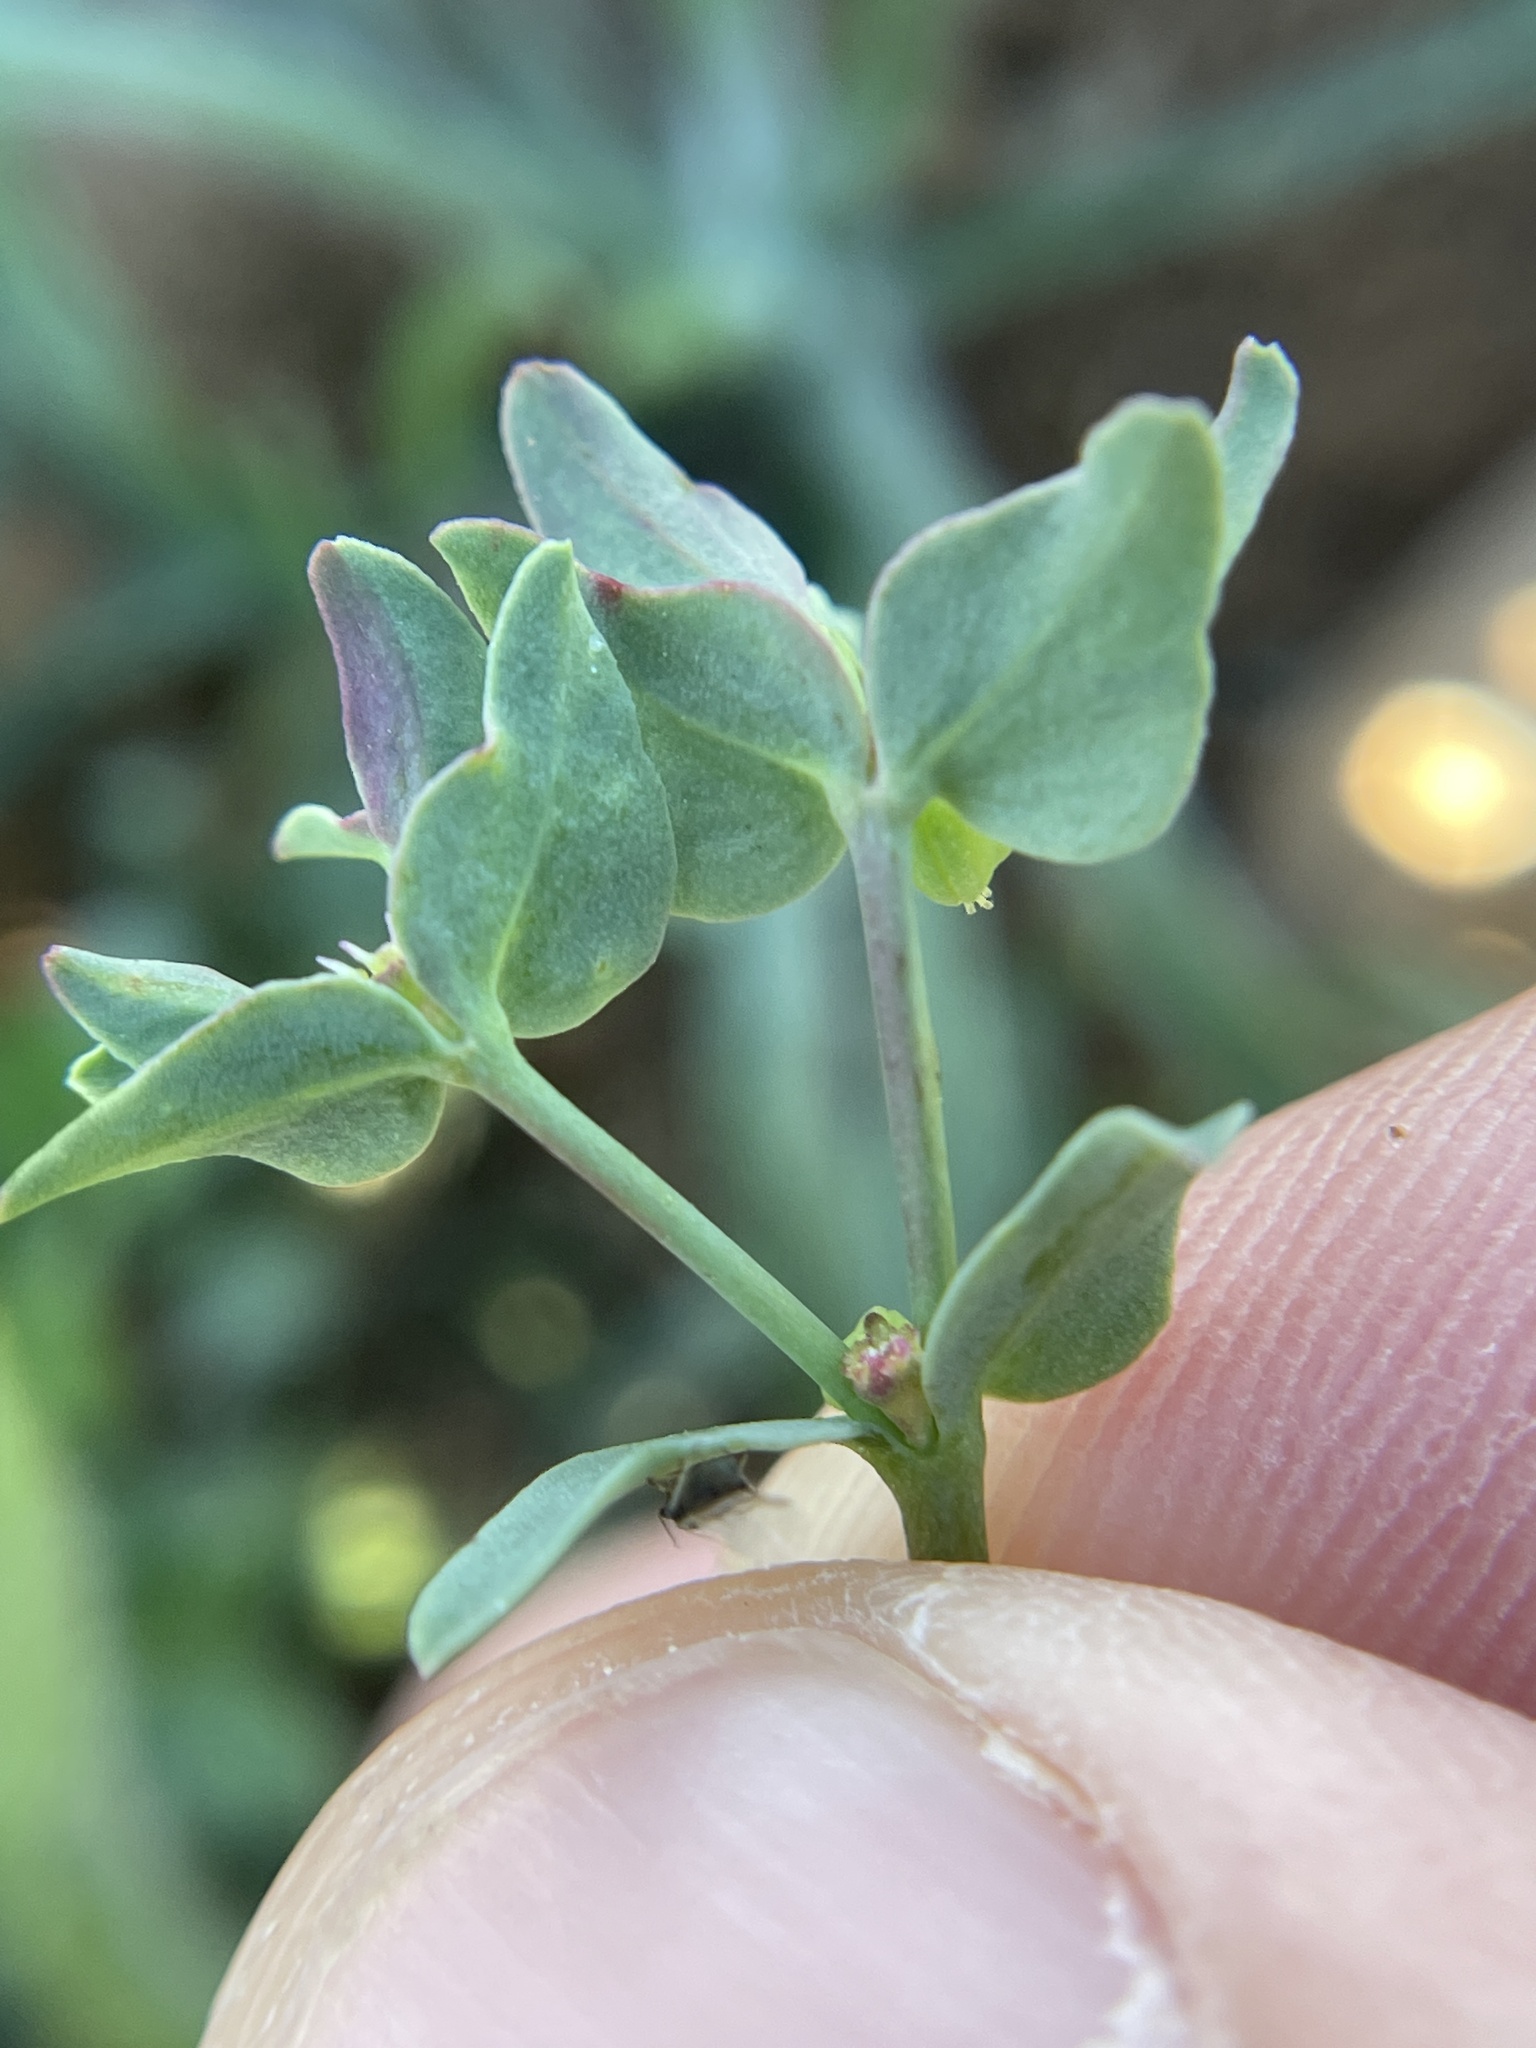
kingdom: Plantae
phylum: Tracheophyta
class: Magnoliopsida
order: Malpighiales
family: Euphorbiaceae
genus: Euphorbia
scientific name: Euphorbia peplidion
